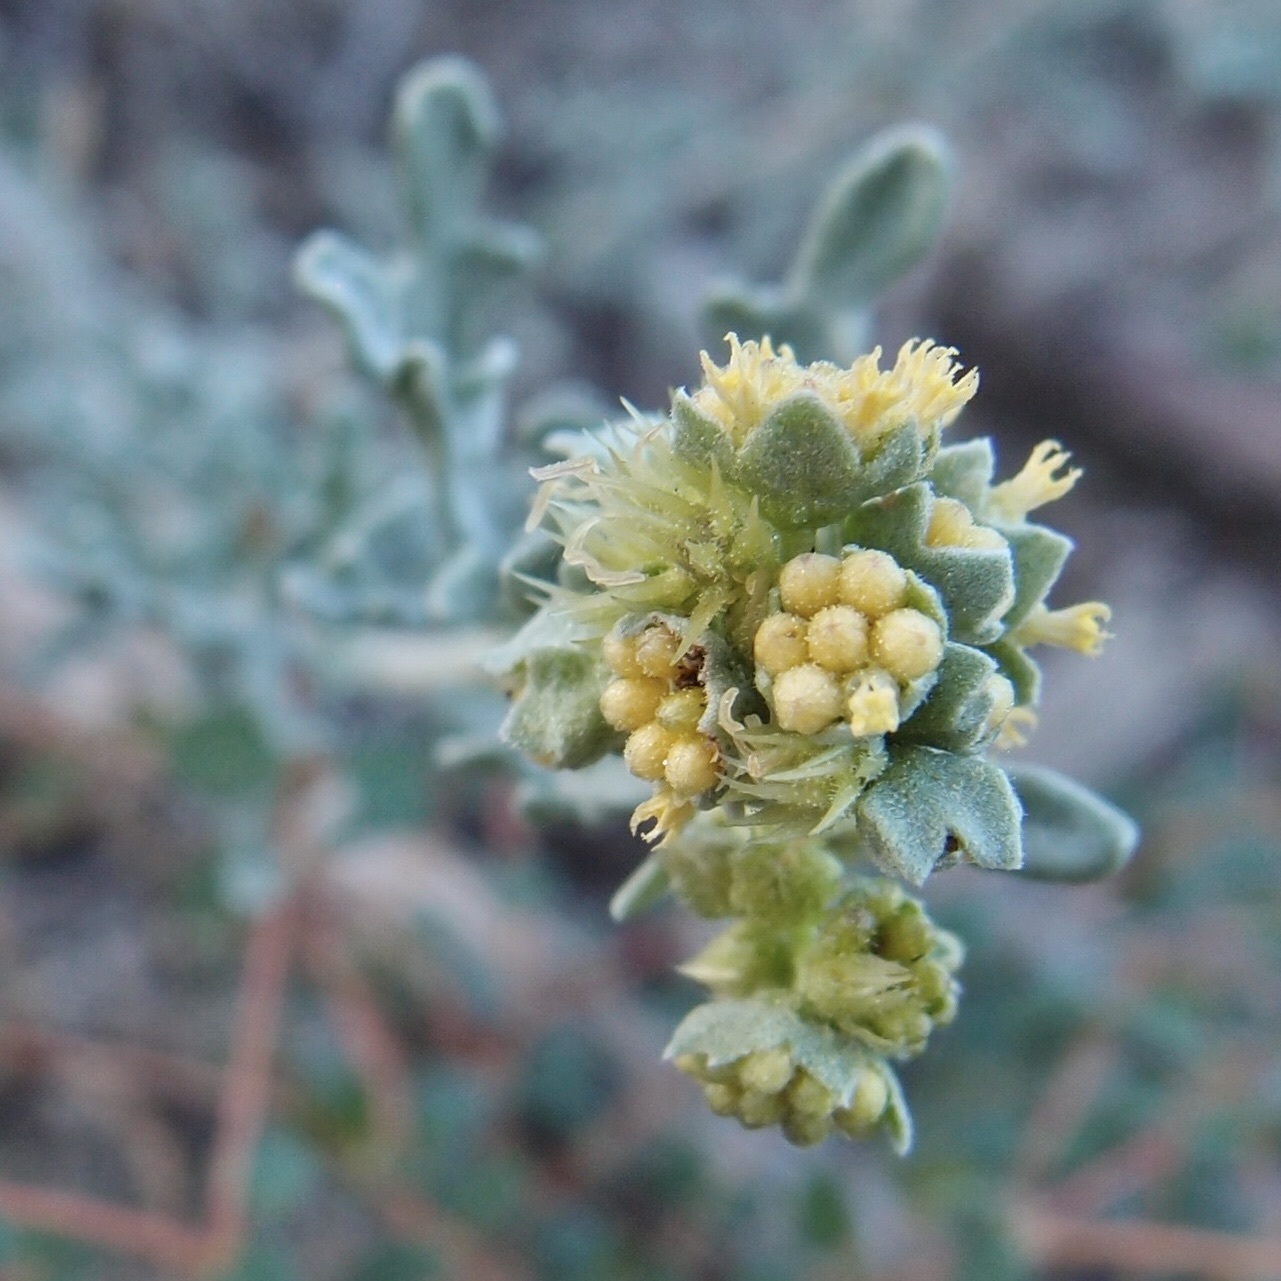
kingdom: Plantae
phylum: Tracheophyta
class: Magnoliopsida
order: Asterales
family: Asteraceae
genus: Ambrosia
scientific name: Ambrosia dumosa
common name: Bur-sage
